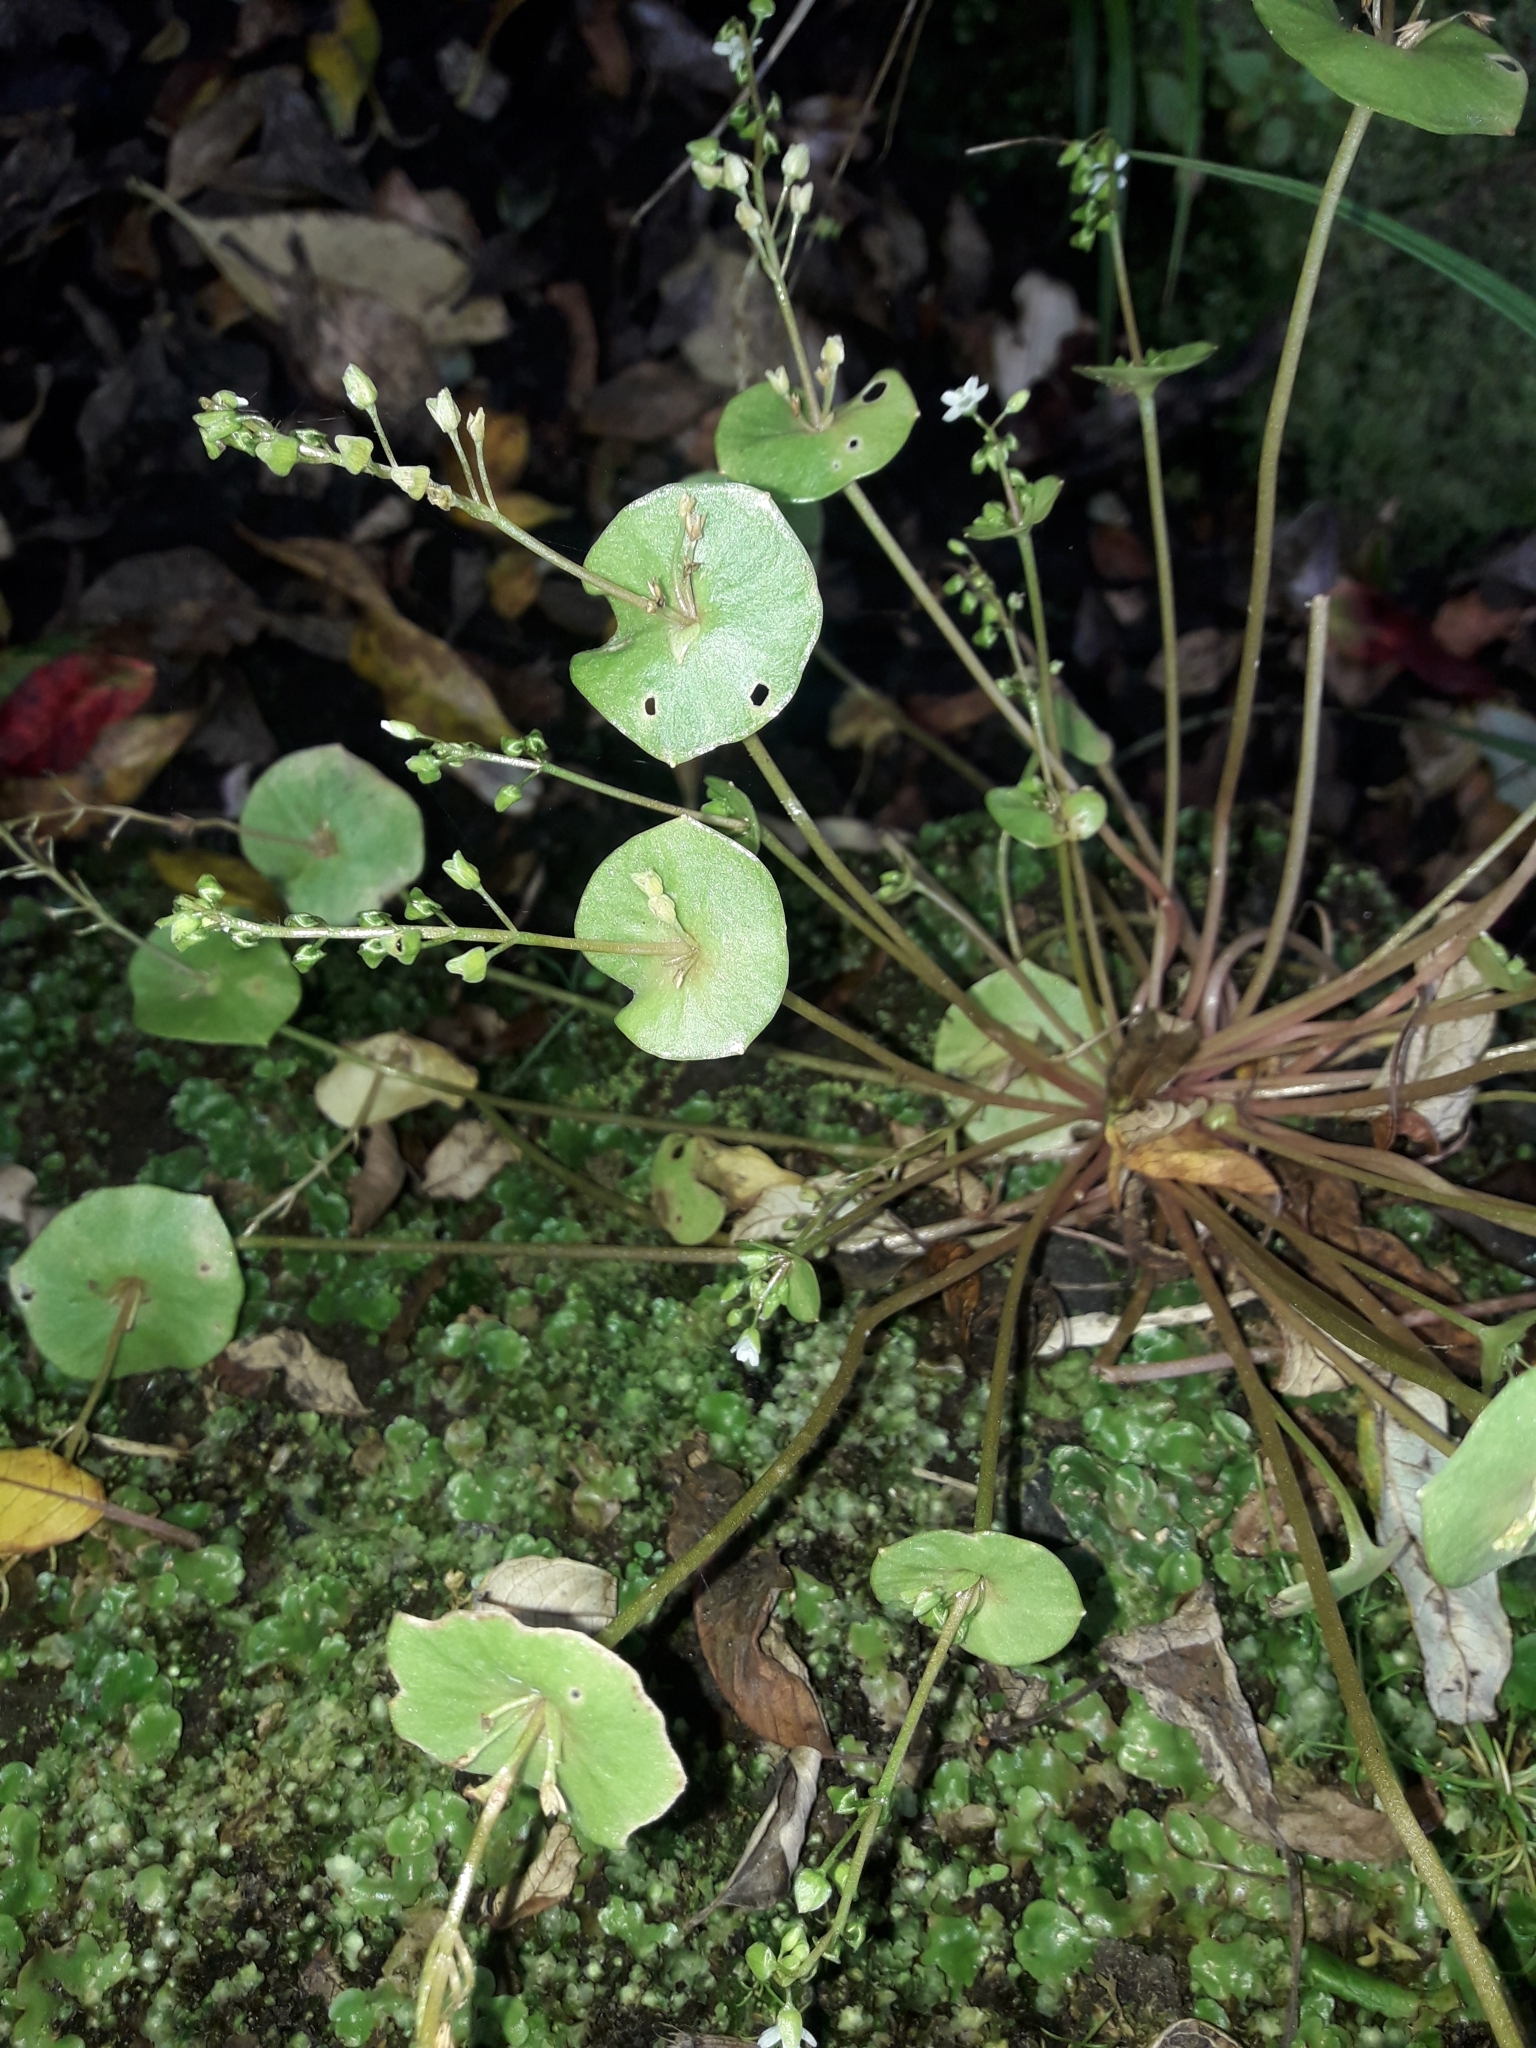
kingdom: Plantae
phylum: Tracheophyta
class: Magnoliopsida
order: Caryophyllales
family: Montiaceae
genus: Claytonia
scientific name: Claytonia perfoliata
